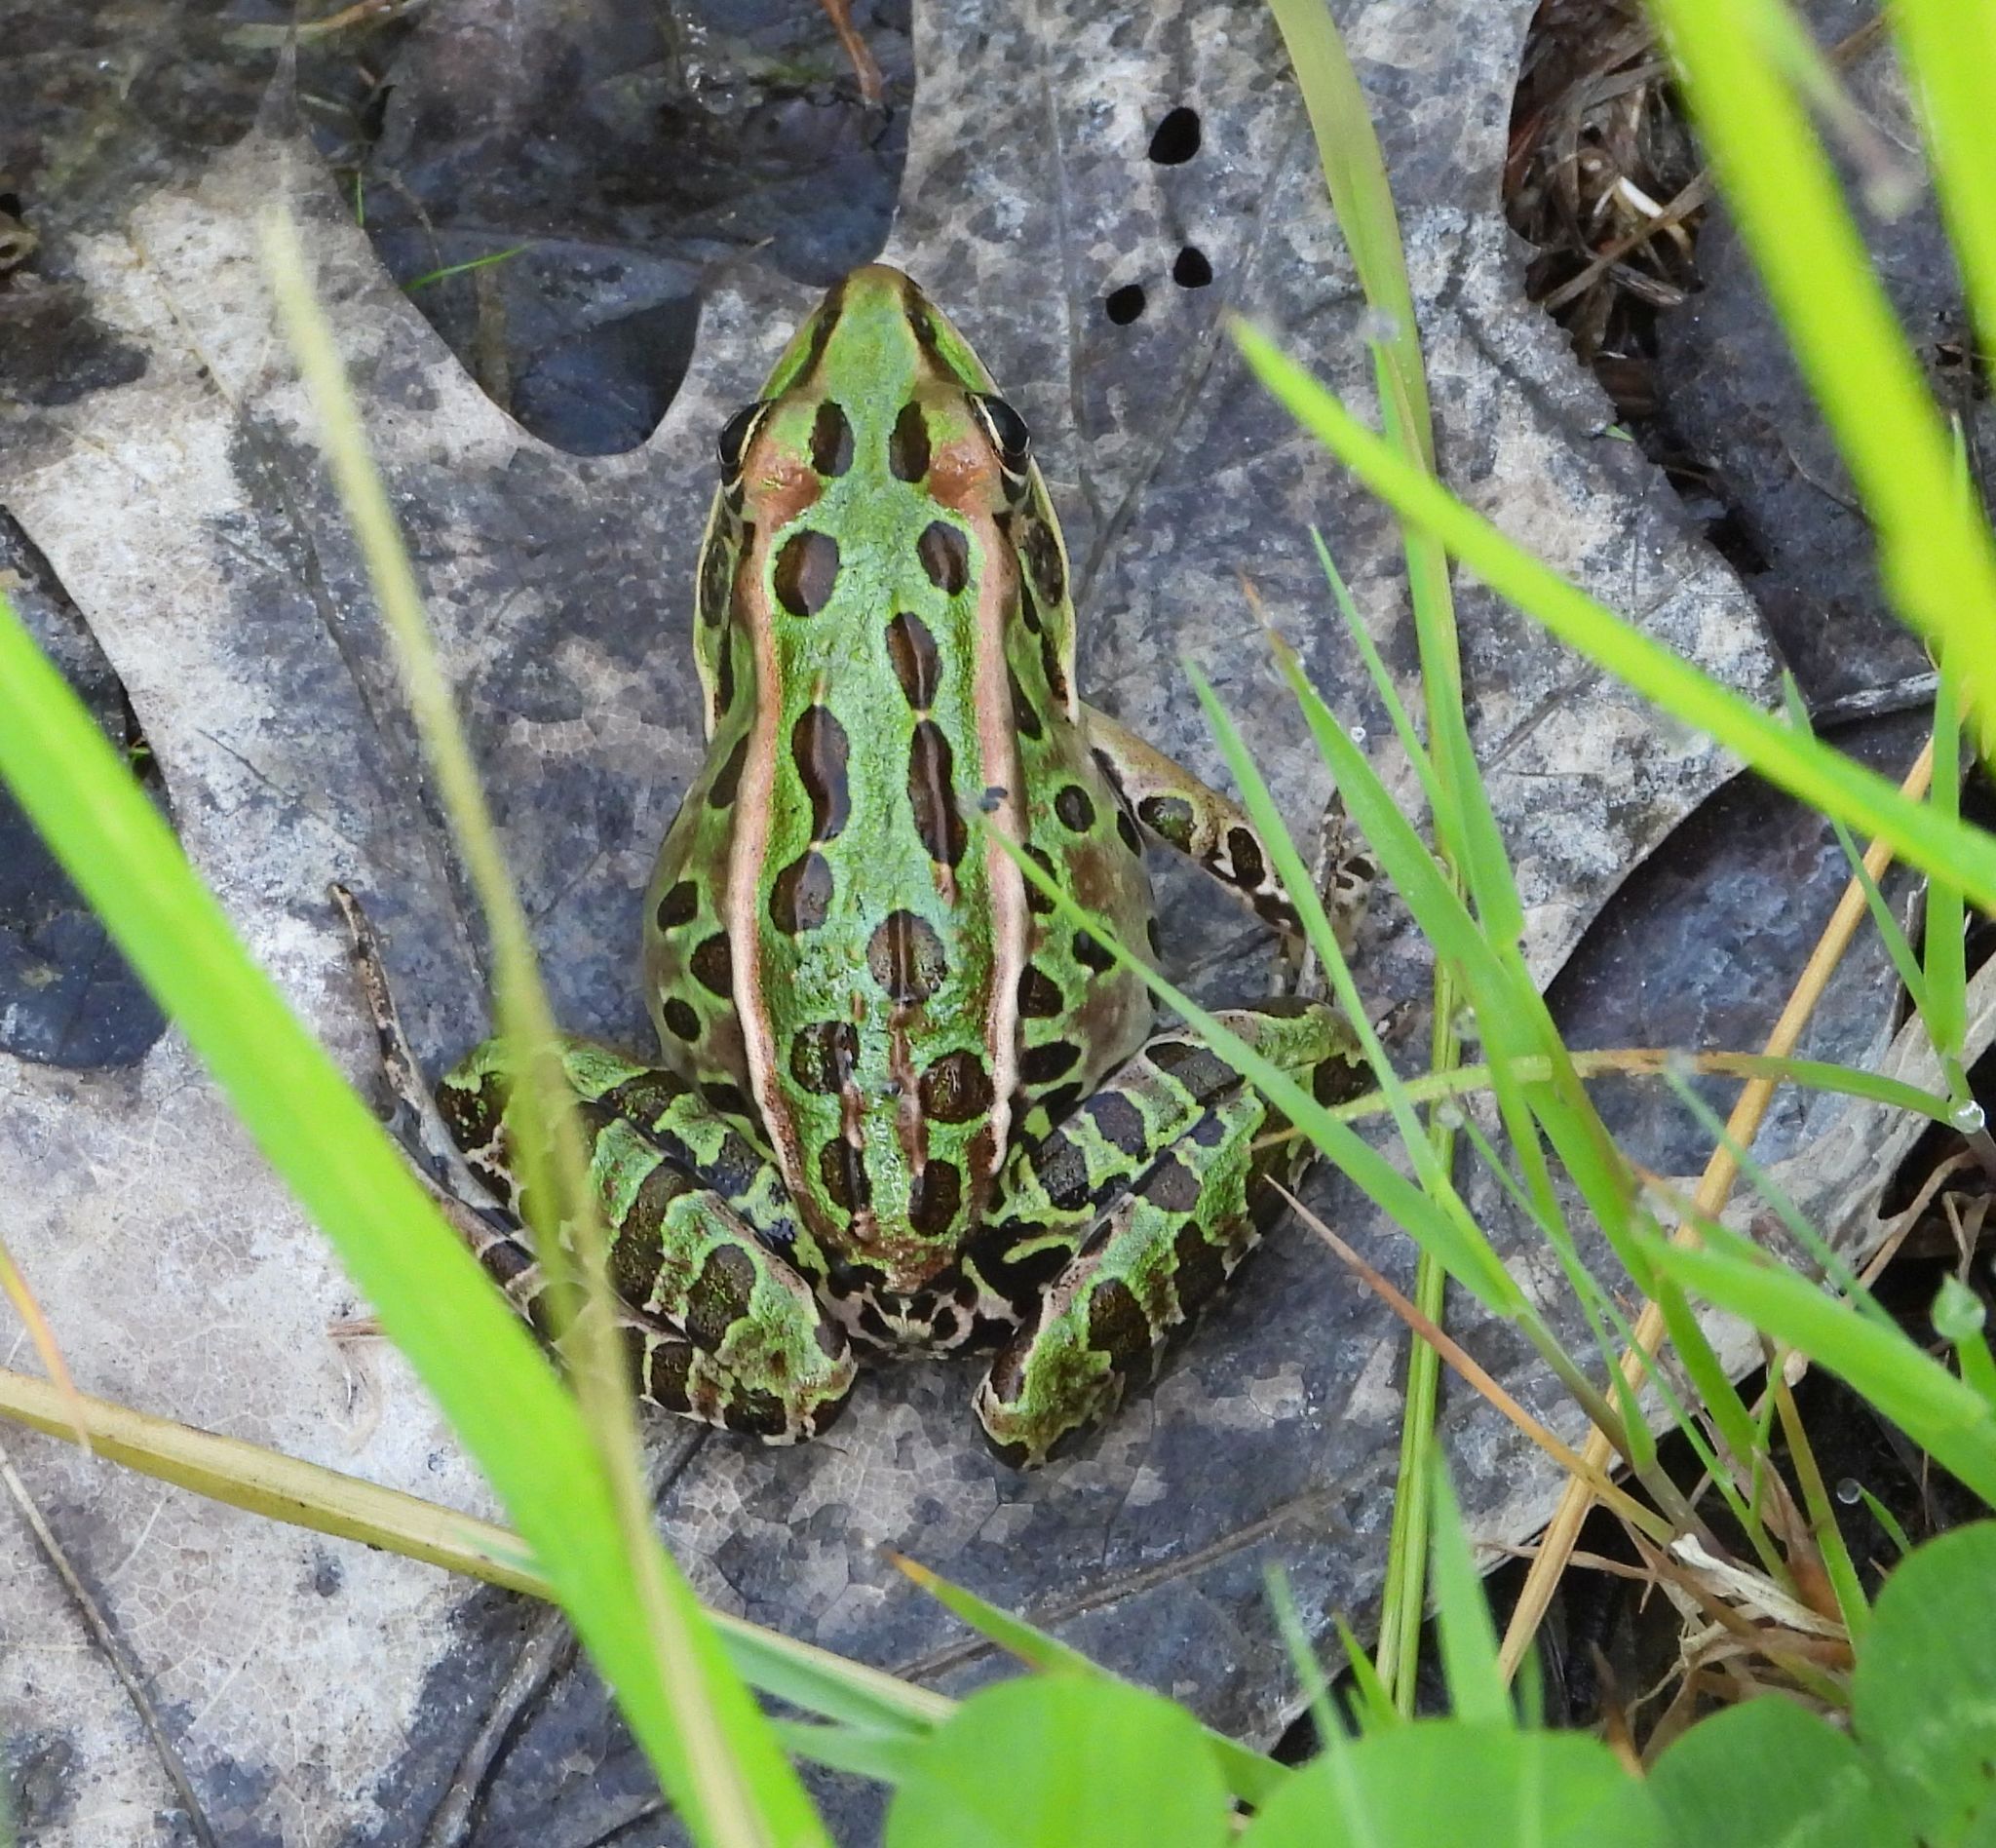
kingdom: Animalia
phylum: Chordata
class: Amphibia
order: Anura
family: Ranidae
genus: Lithobates
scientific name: Lithobates pipiens
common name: Northern leopard frog
